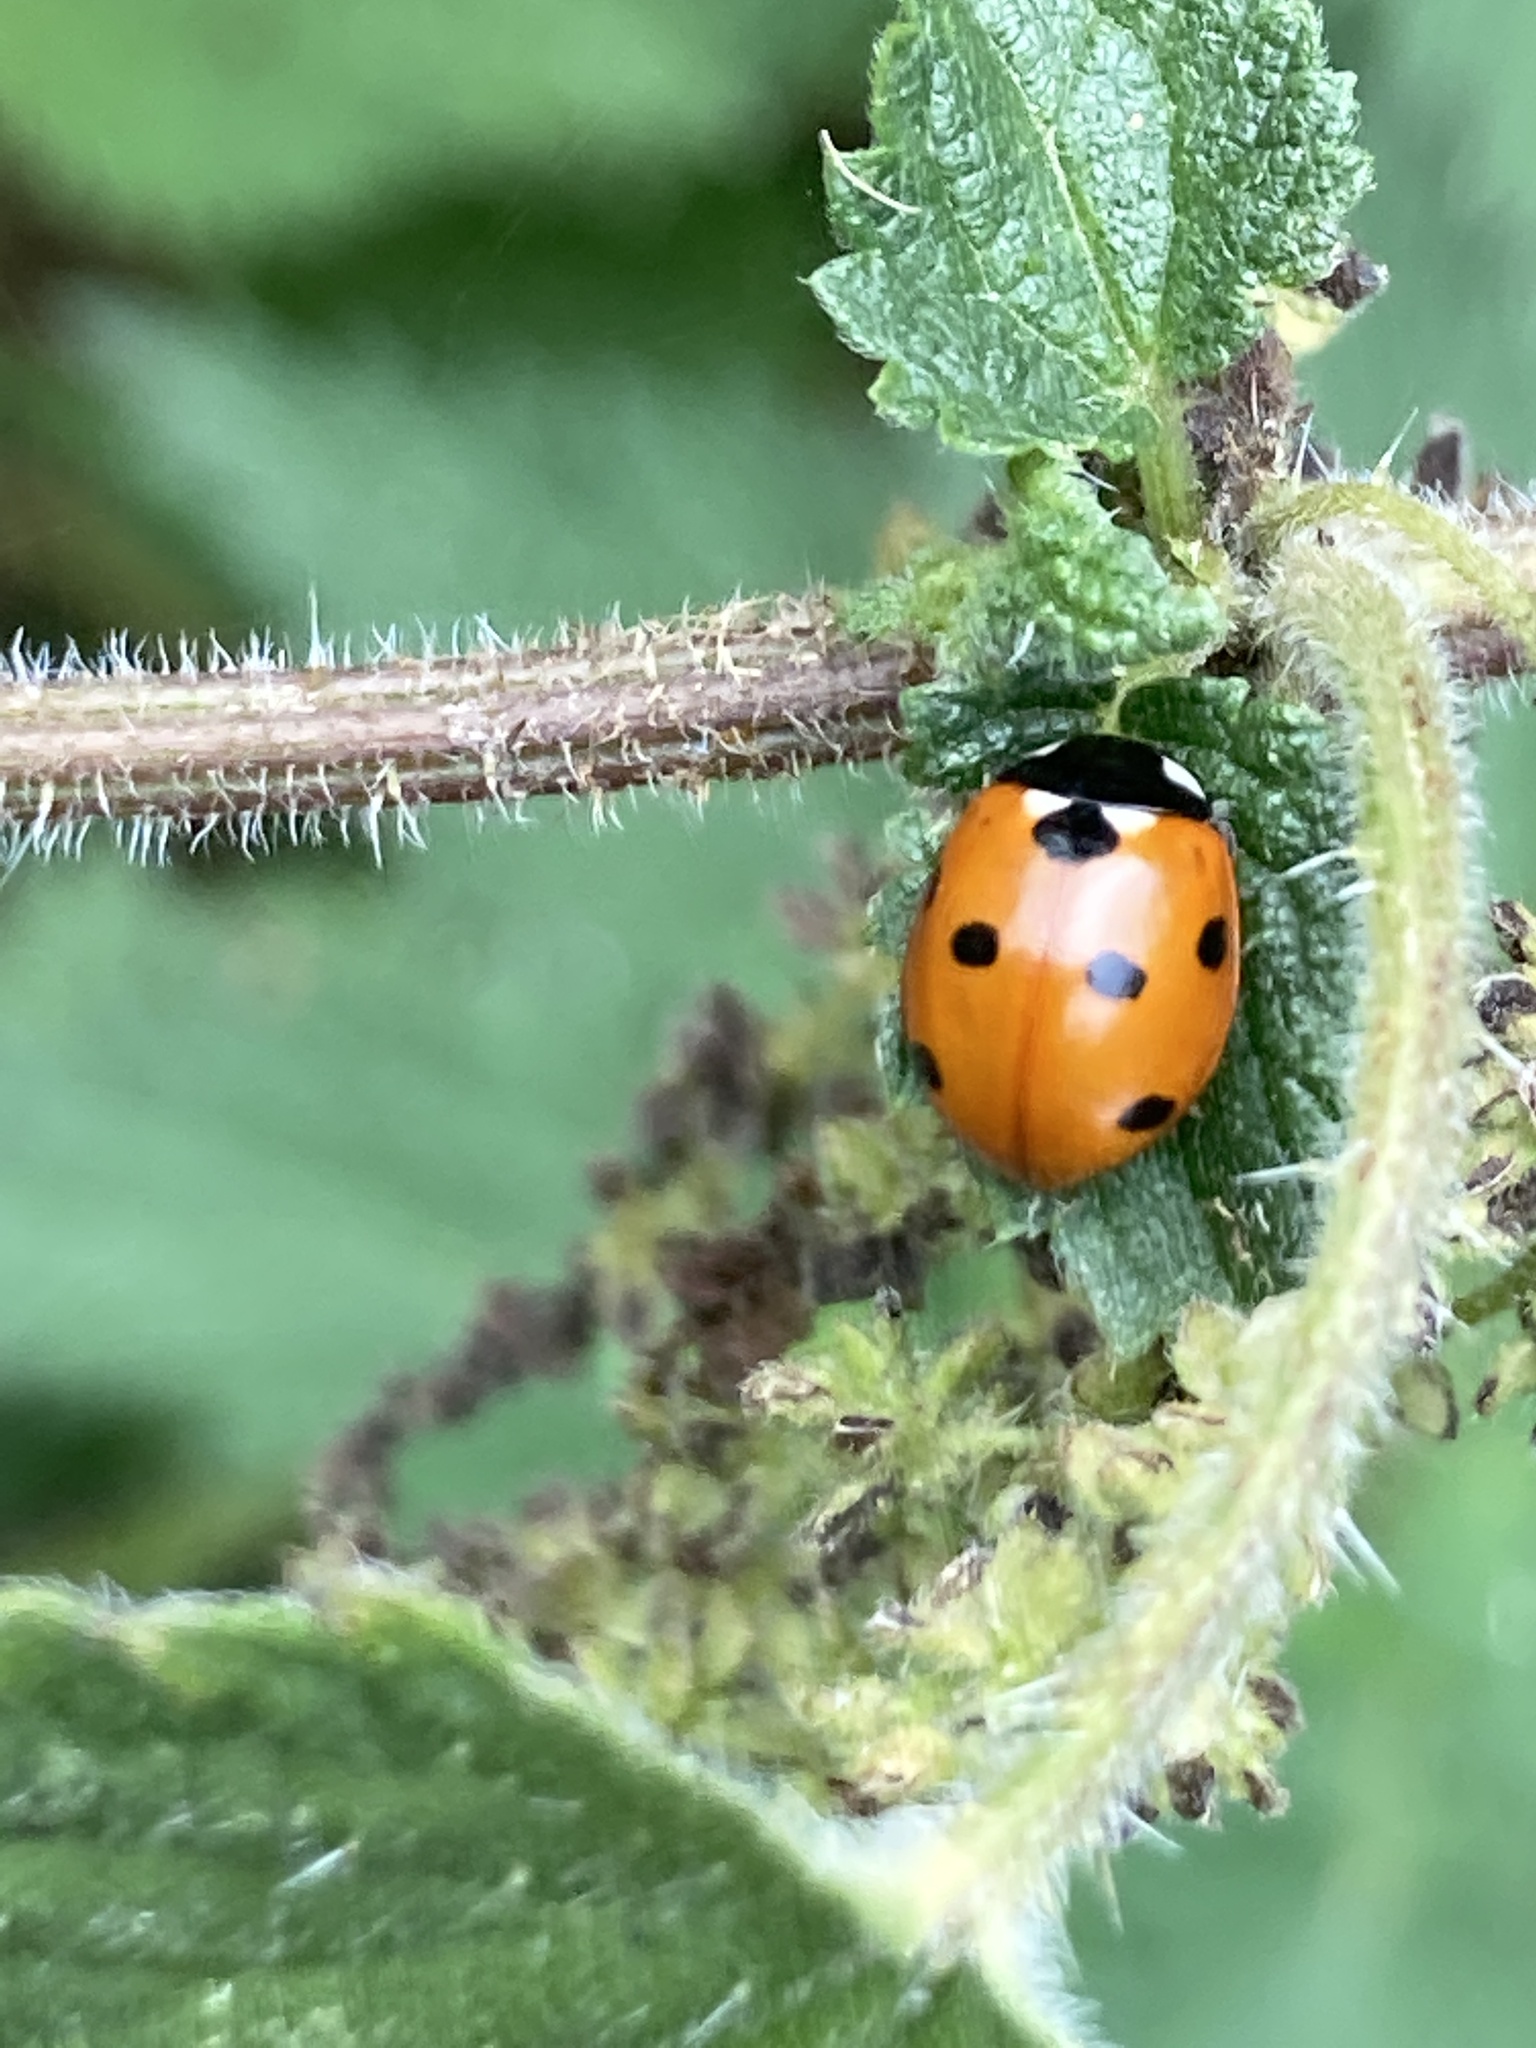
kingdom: Animalia
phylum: Arthropoda
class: Insecta
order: Coleoptera
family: Coccinellidae
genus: Coccinella
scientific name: Coccinella septempunctata
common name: Sevenspotted lady beetle
